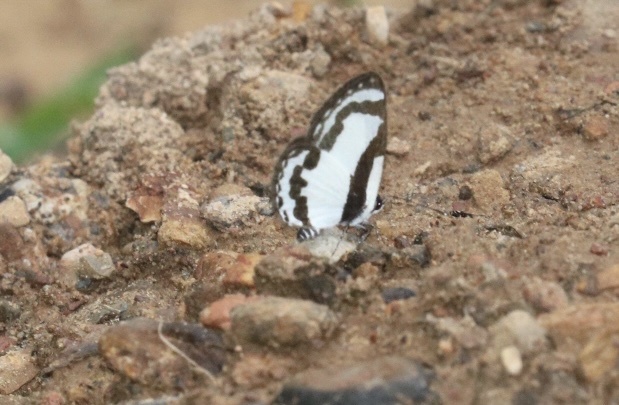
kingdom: Animalia
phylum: Arthropoda
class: Insecta
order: Lepidoptera
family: Lycaenidae
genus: Caleta
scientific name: Caleta roxus
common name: Straight pierrot
